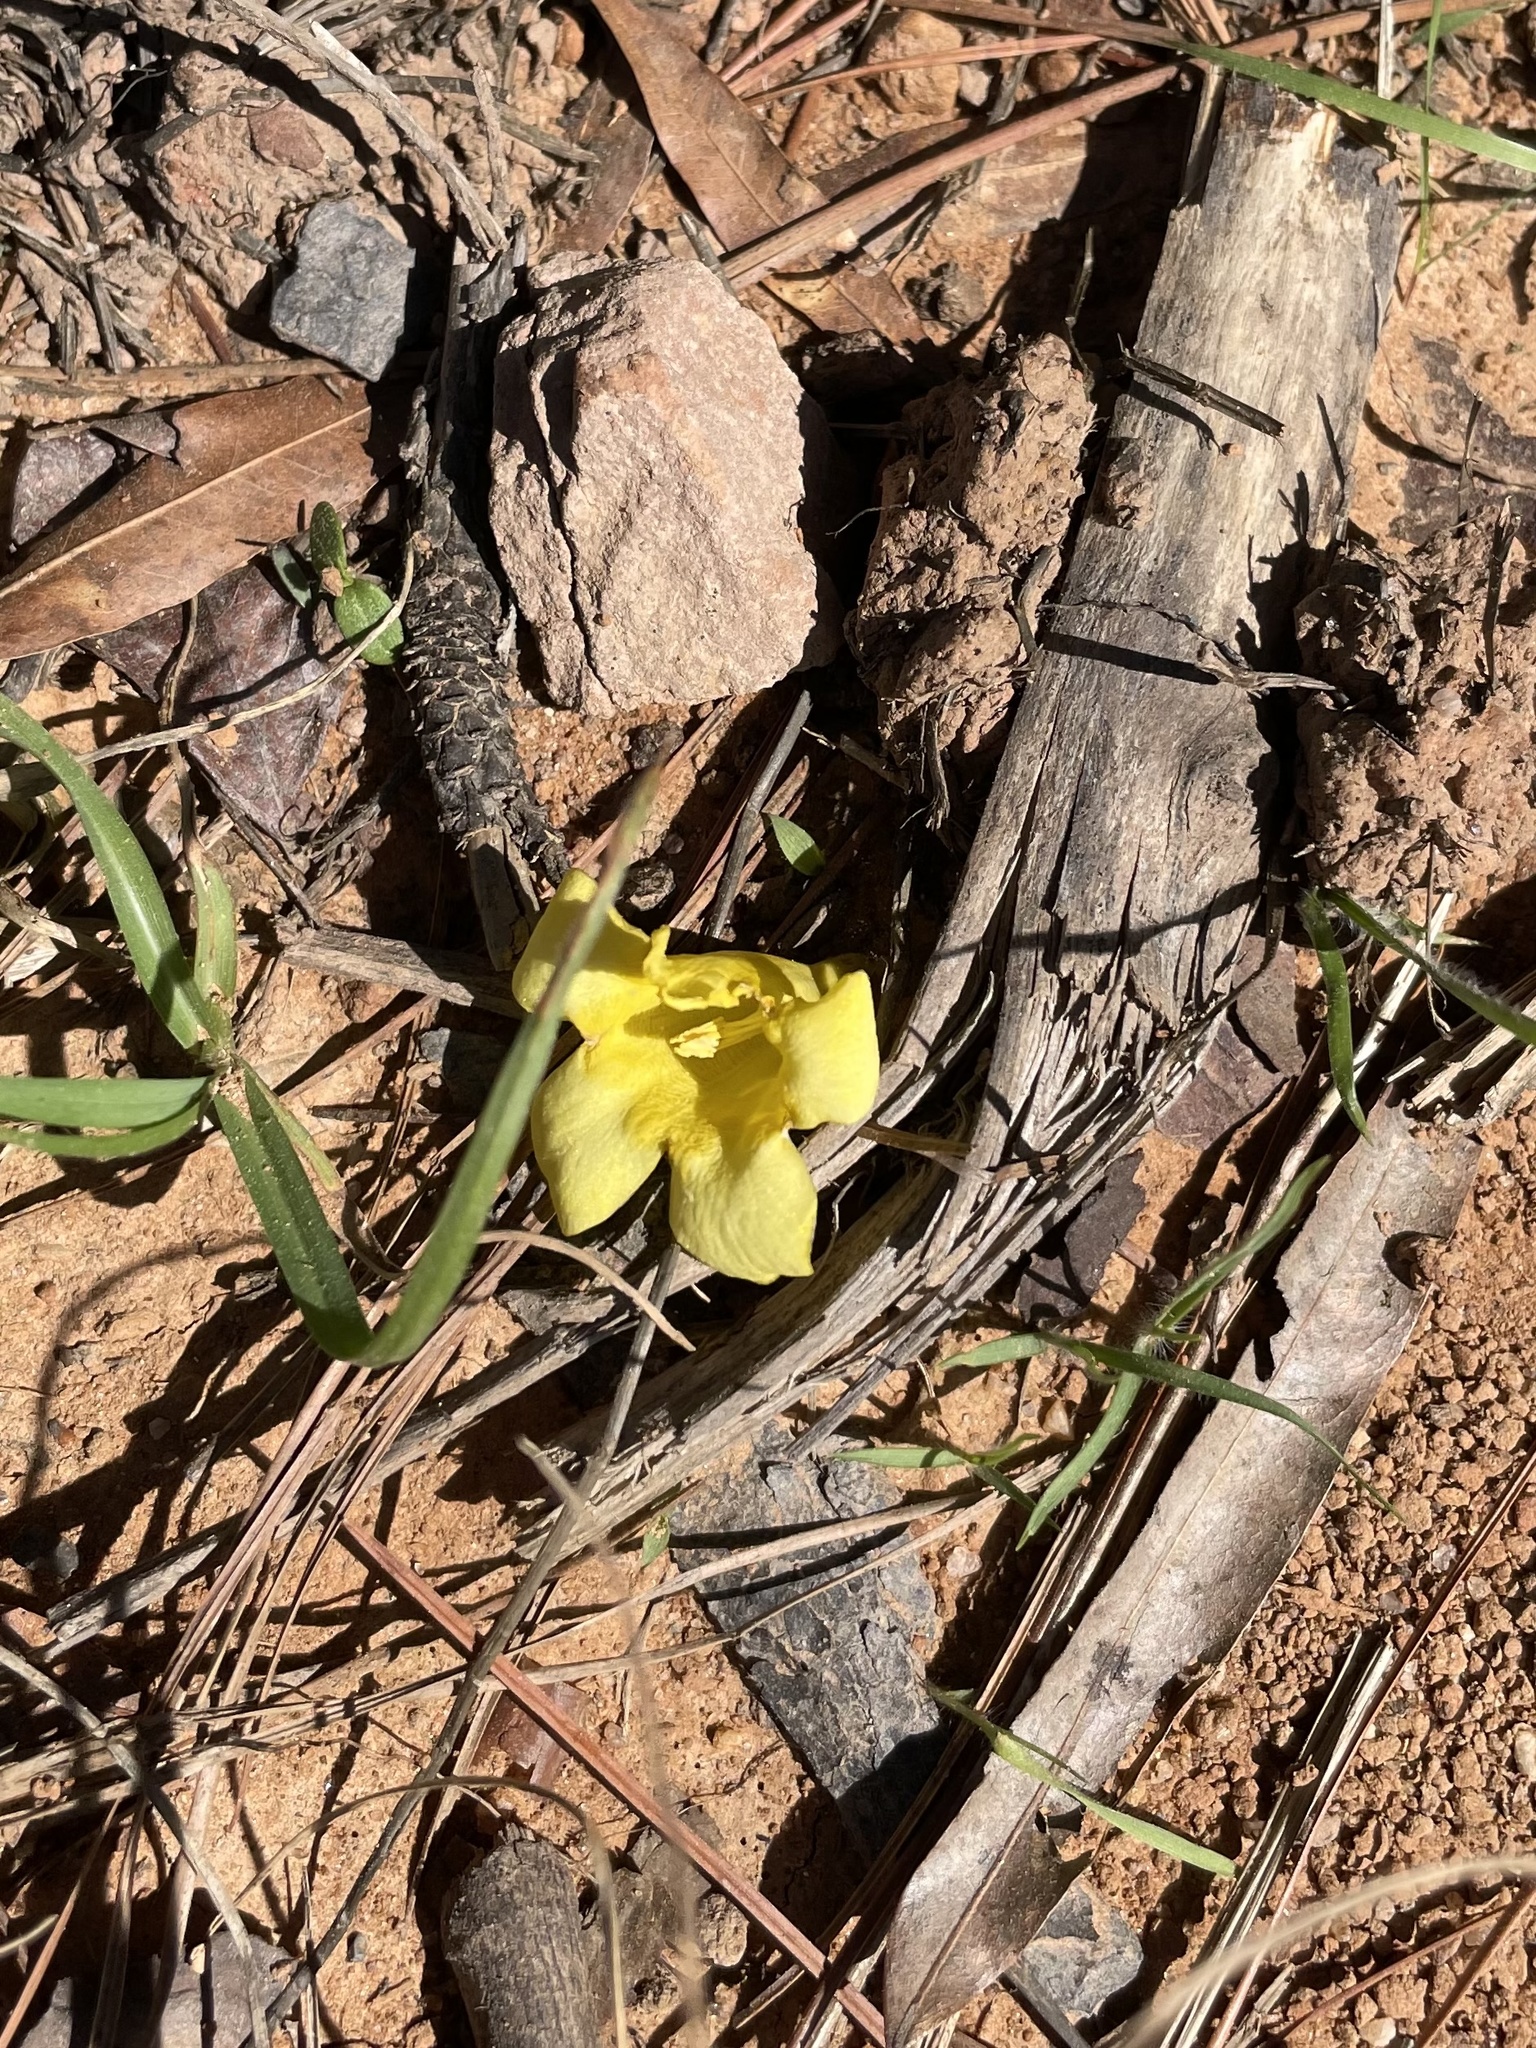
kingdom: Plantae
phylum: Tracheophyta
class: Magnoliopsida
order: Gentianales
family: Gelsemiaceae
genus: Gelsemium
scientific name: Gelsemium sempervirens
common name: Carolina-jasmine
